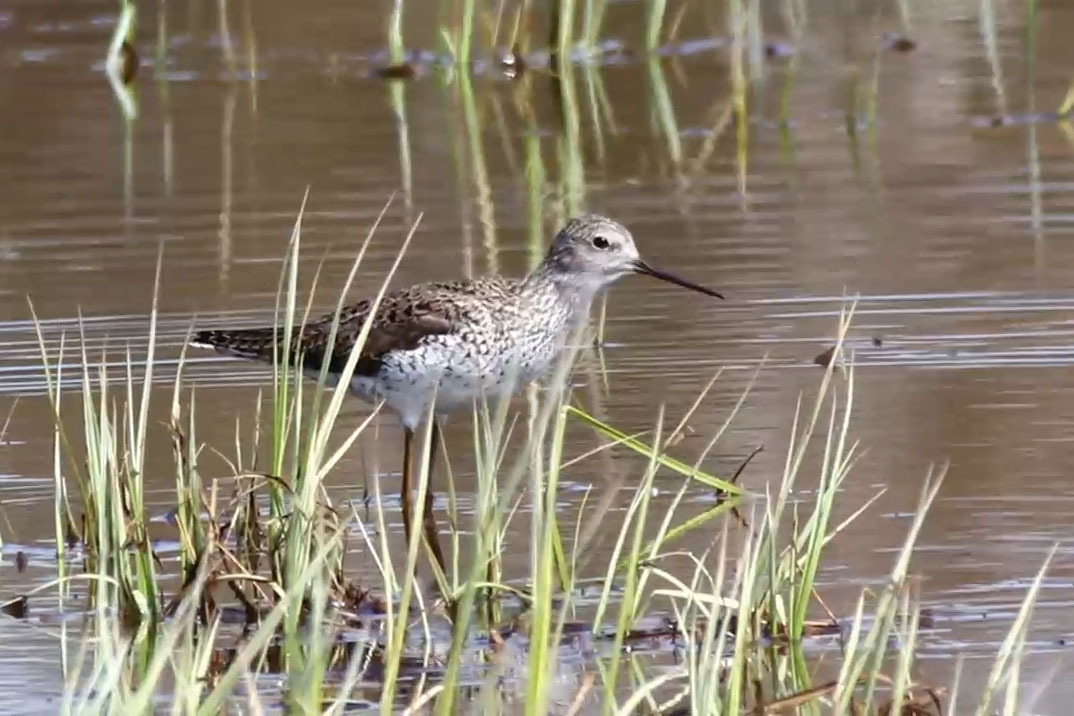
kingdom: Animalia
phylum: Chordata
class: Aves
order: Charadriiformes
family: Scolopacidae
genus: Tringa
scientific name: Tringa stagnatilis
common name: Marsh sandpiper
